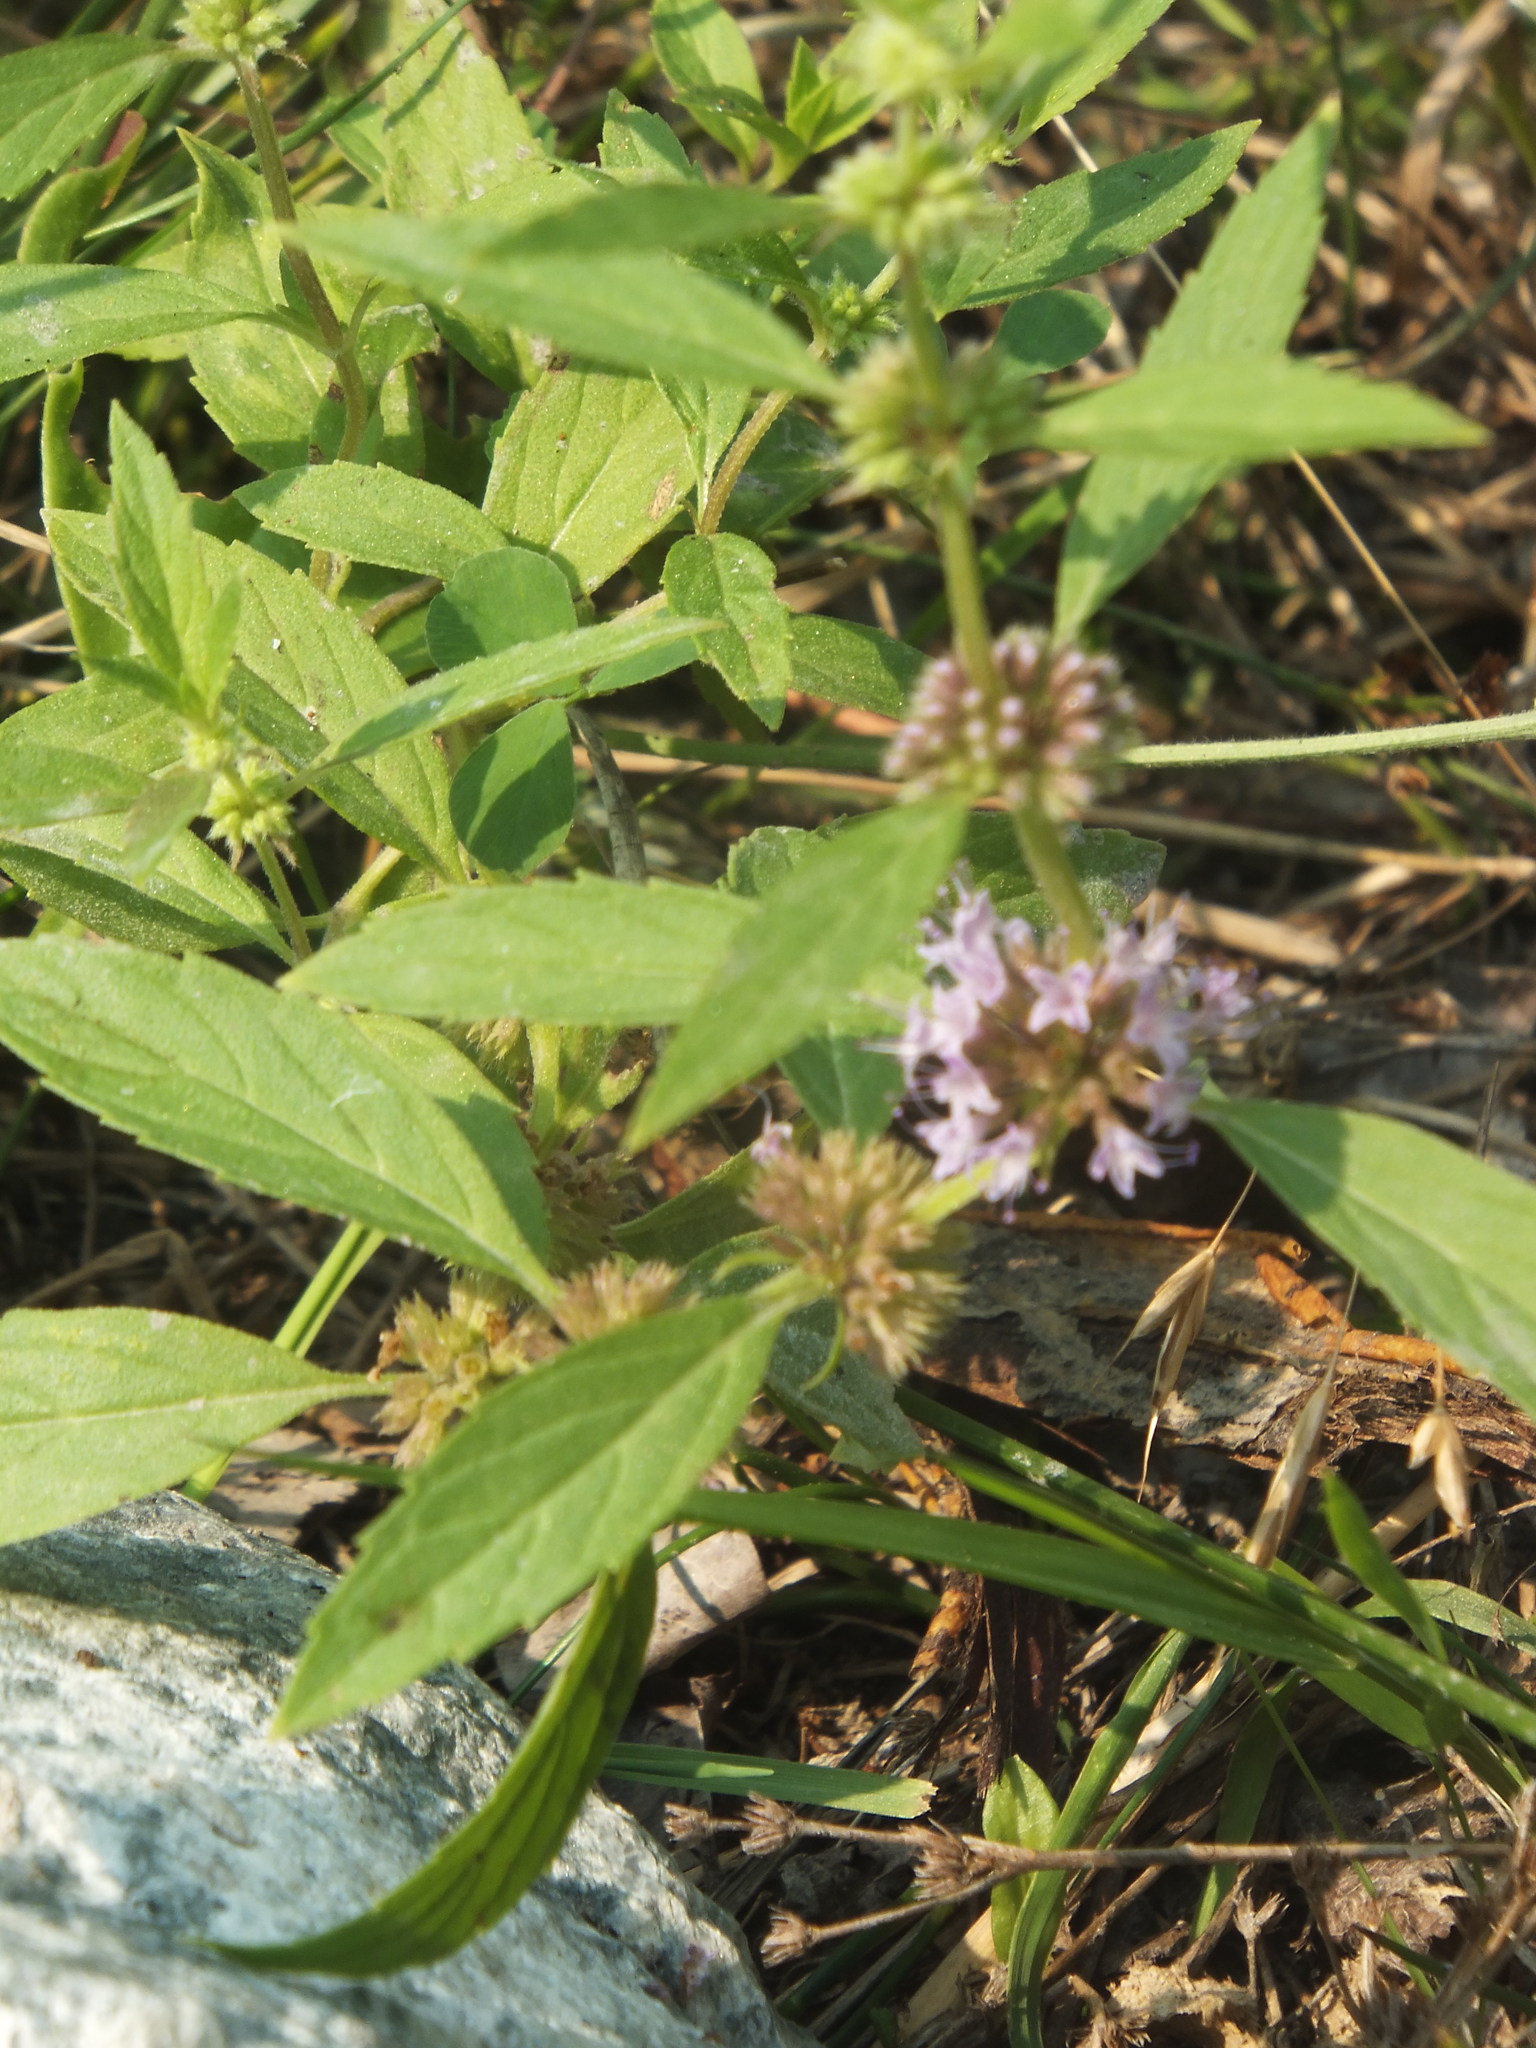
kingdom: Plantae
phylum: Tracheophyta
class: Magnoliopsida
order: Lamiales
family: Lamiaceae
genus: Mentha
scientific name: Mentha canadensis
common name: American corn mint
